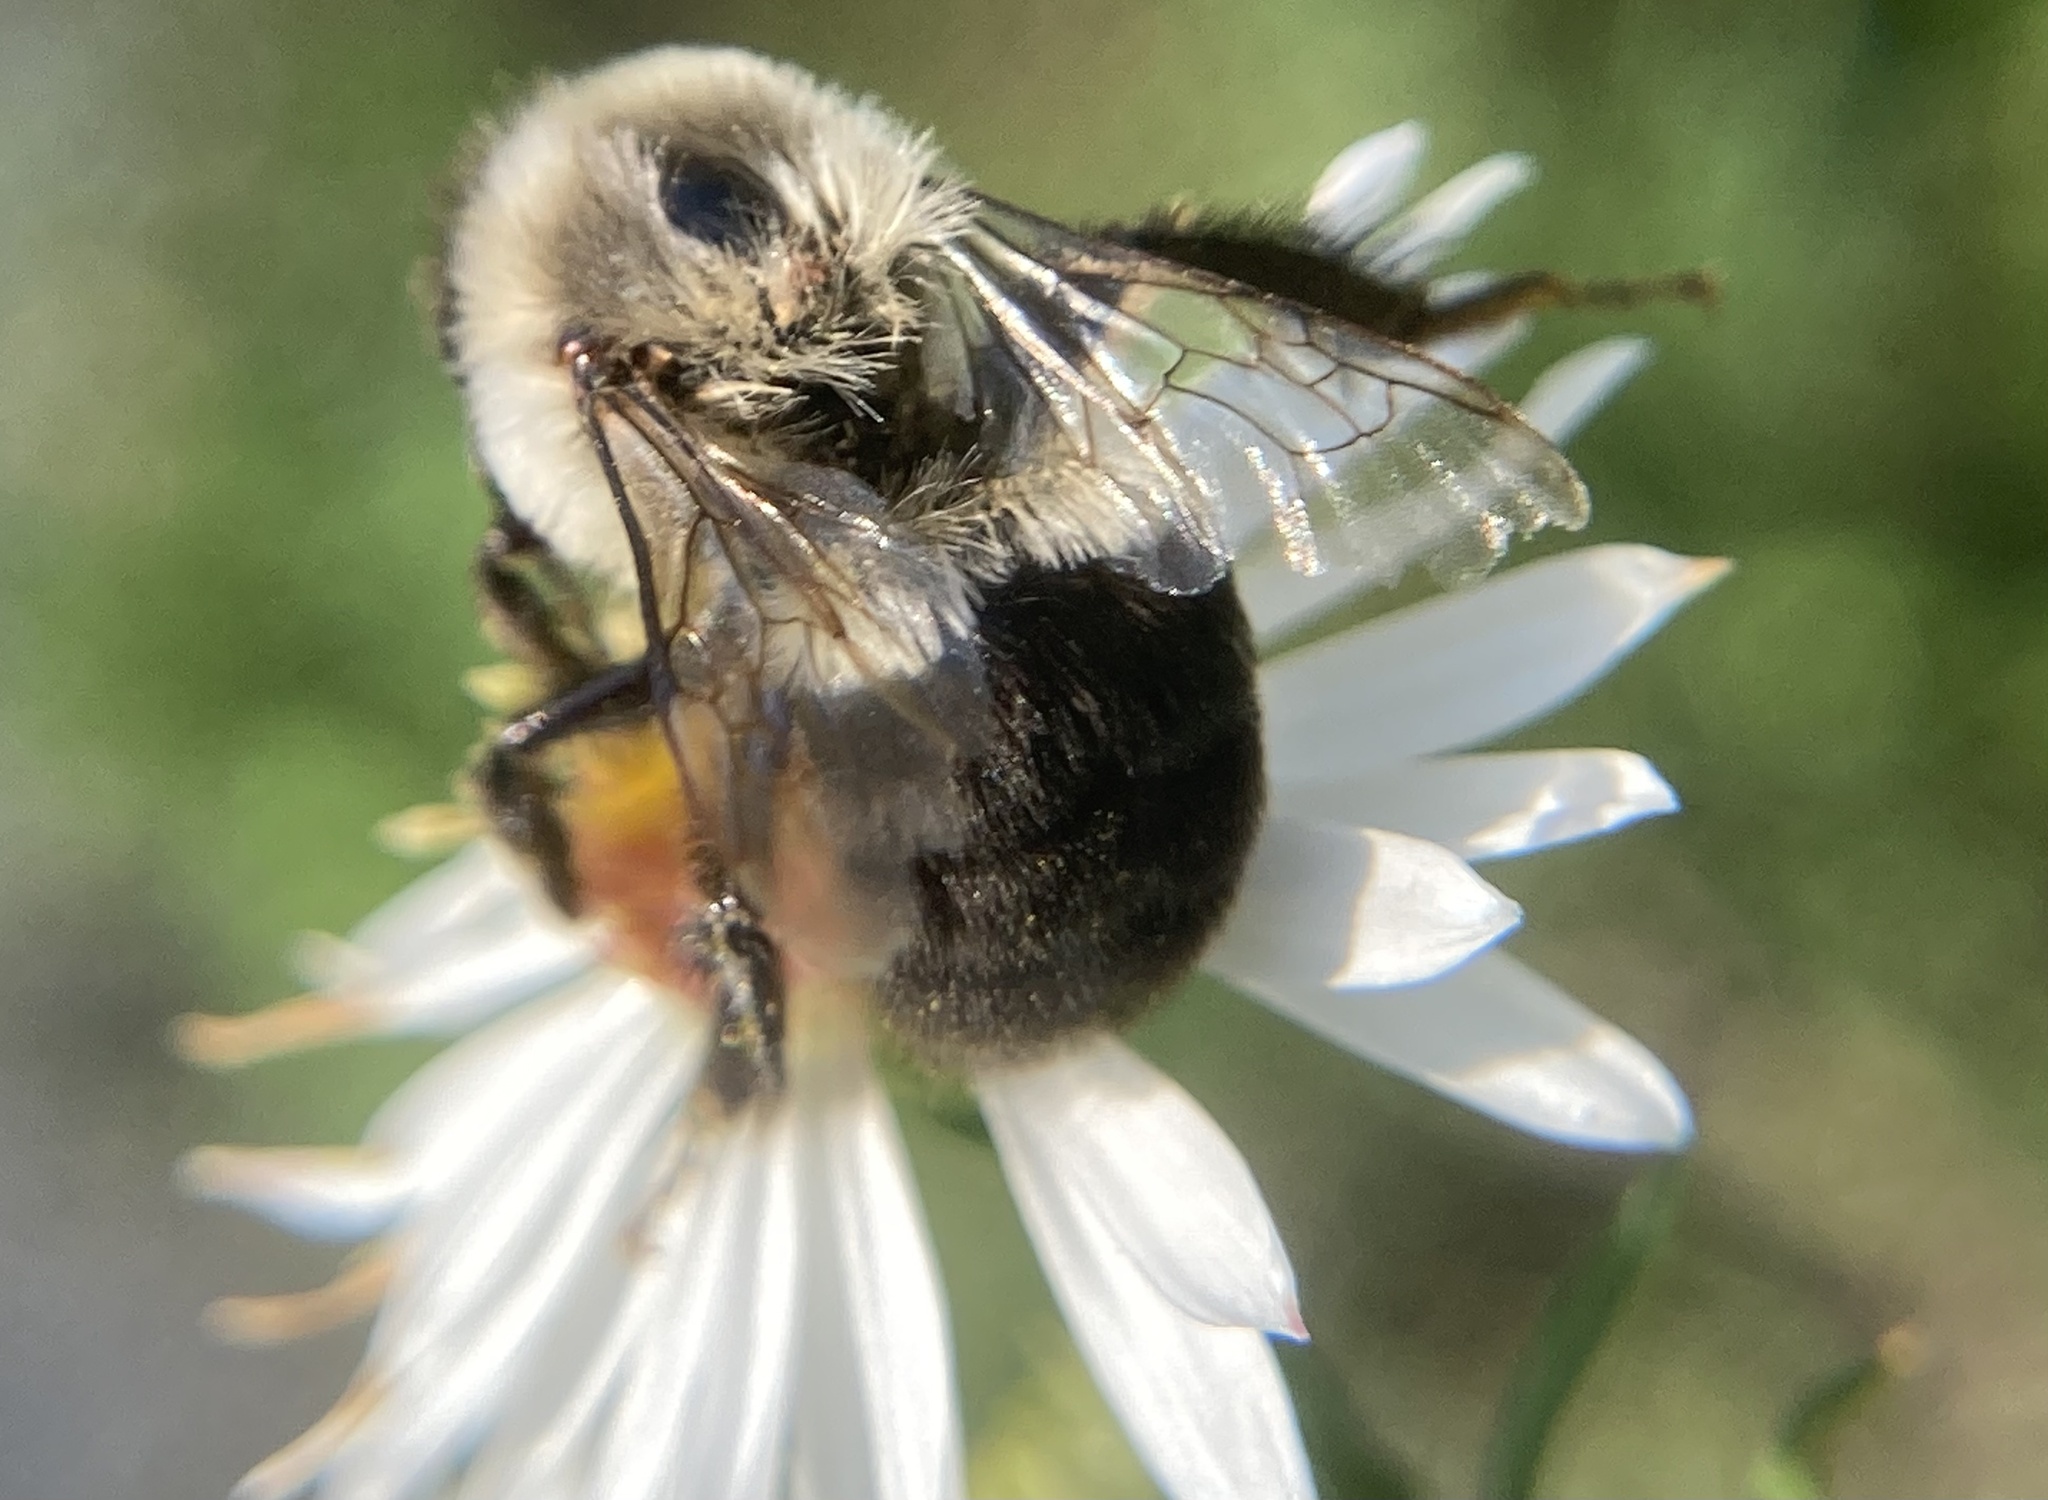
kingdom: Animalia
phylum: Arthropoda
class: Insecta
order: Hymenoptera
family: Apidae
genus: Bombus
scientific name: Bombus impatiens
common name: Common eastern bumble bee
